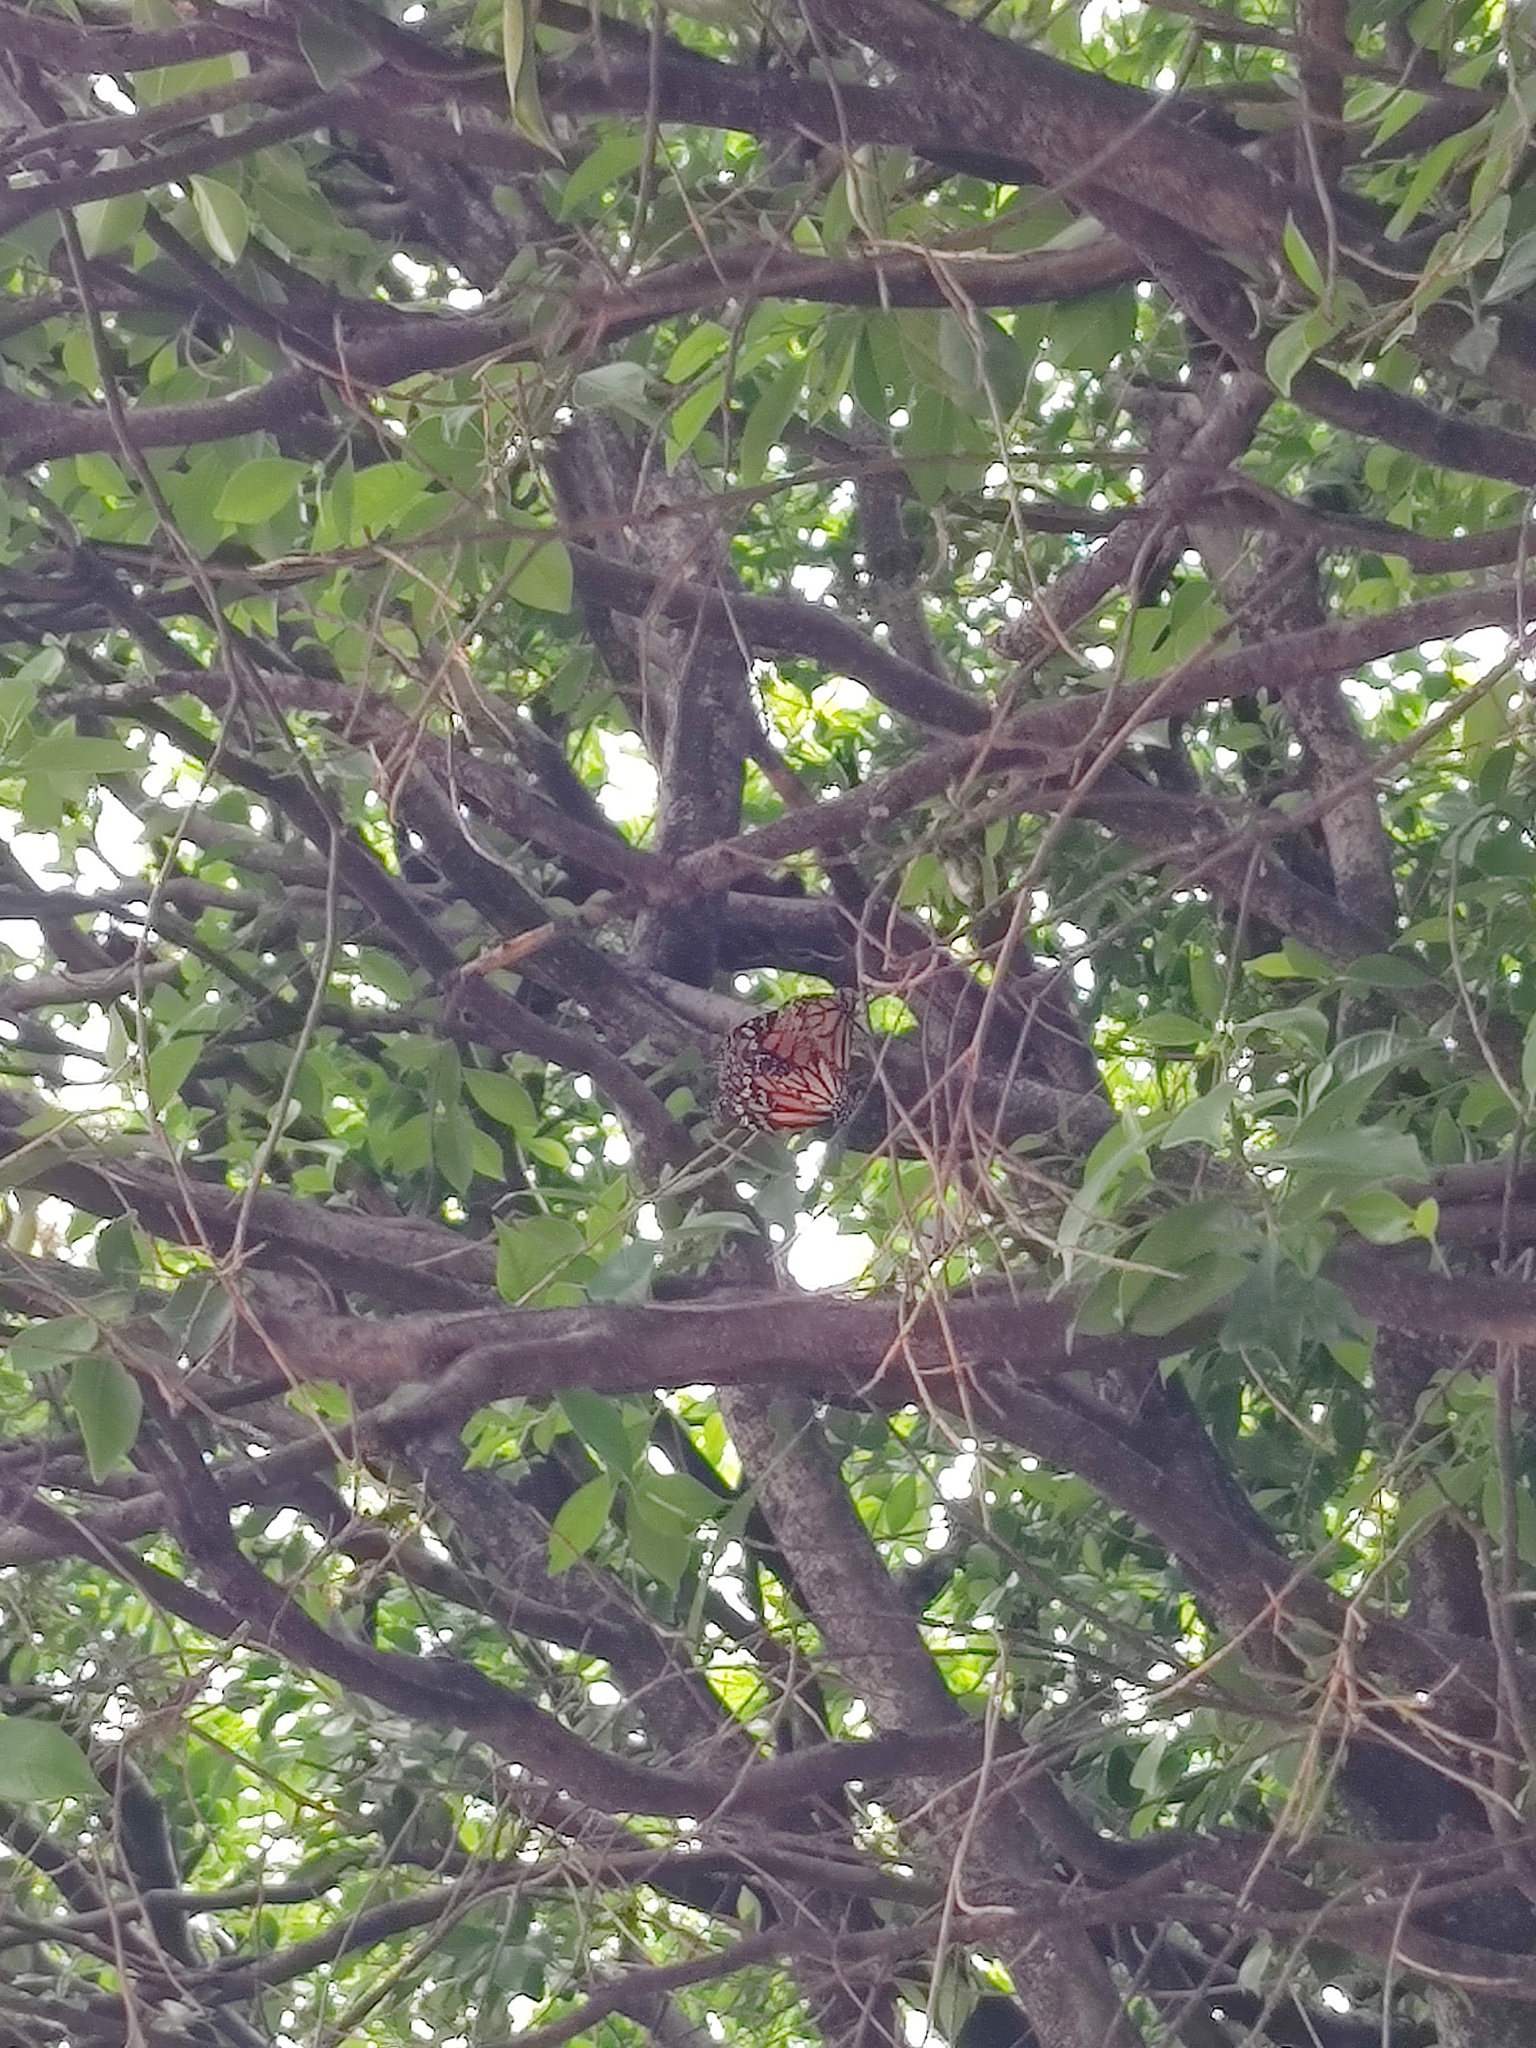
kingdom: Animalia
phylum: Arthropoda
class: Insecta
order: Lepidoptera
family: Nymphalidae
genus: Danaus
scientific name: Danaus plexippus
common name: Monarch
